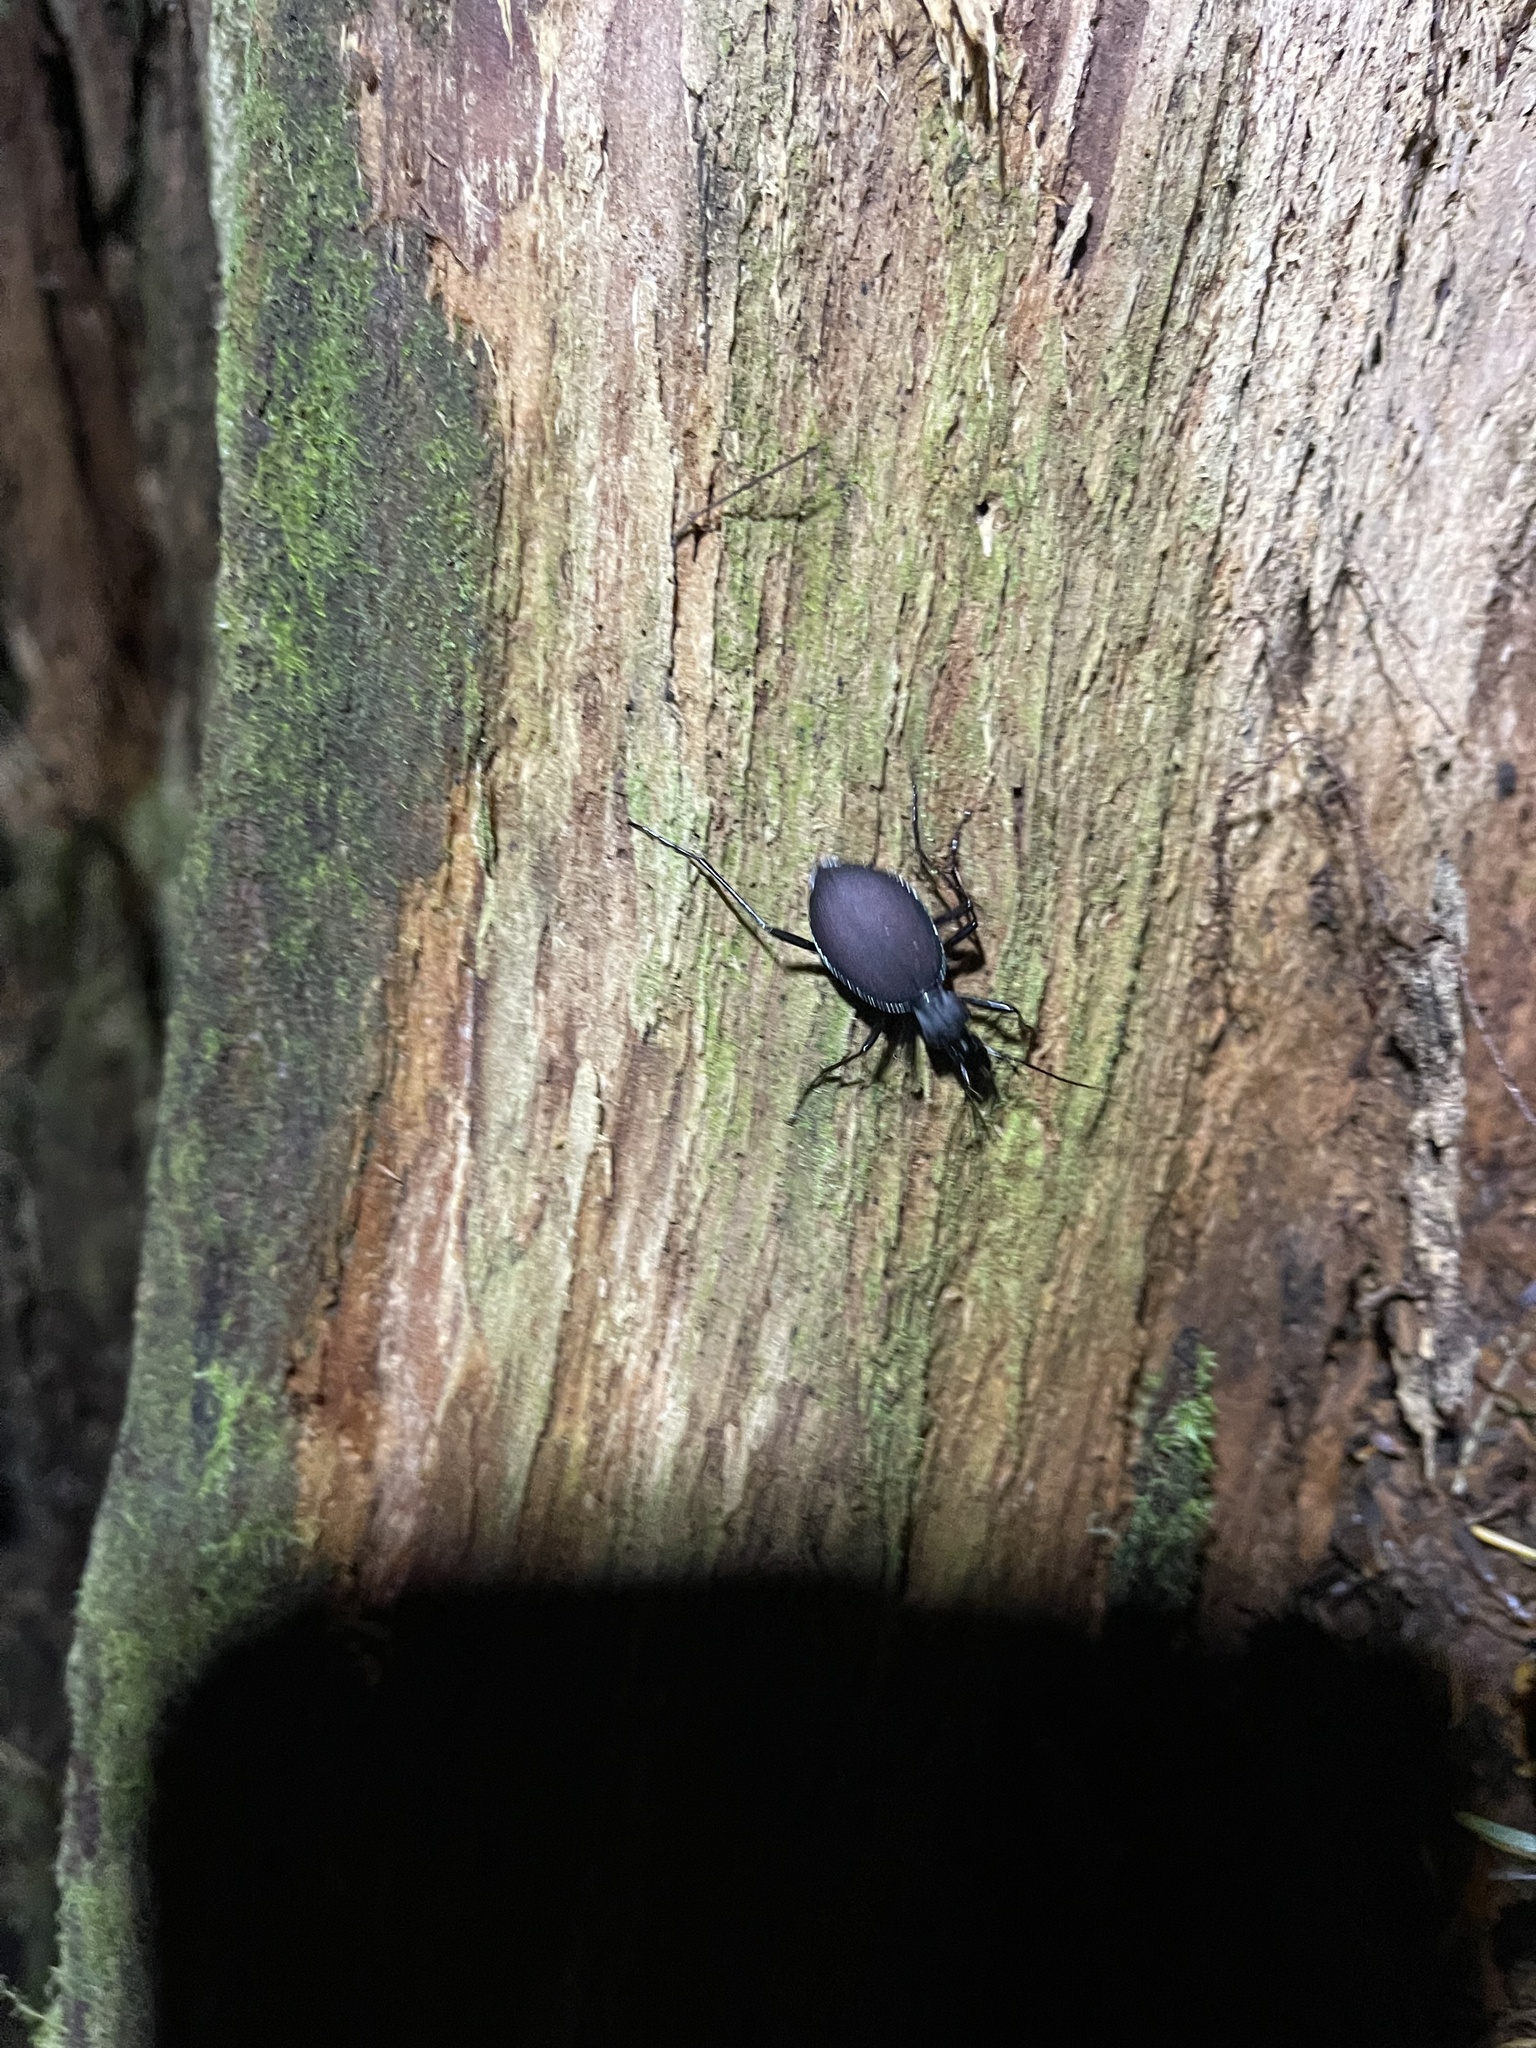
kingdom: Animalia
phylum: Arthropoda
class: Insecta
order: Coleoptera
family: Carabidae
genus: Scaphinotus
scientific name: Scaphinotus angusticollis
